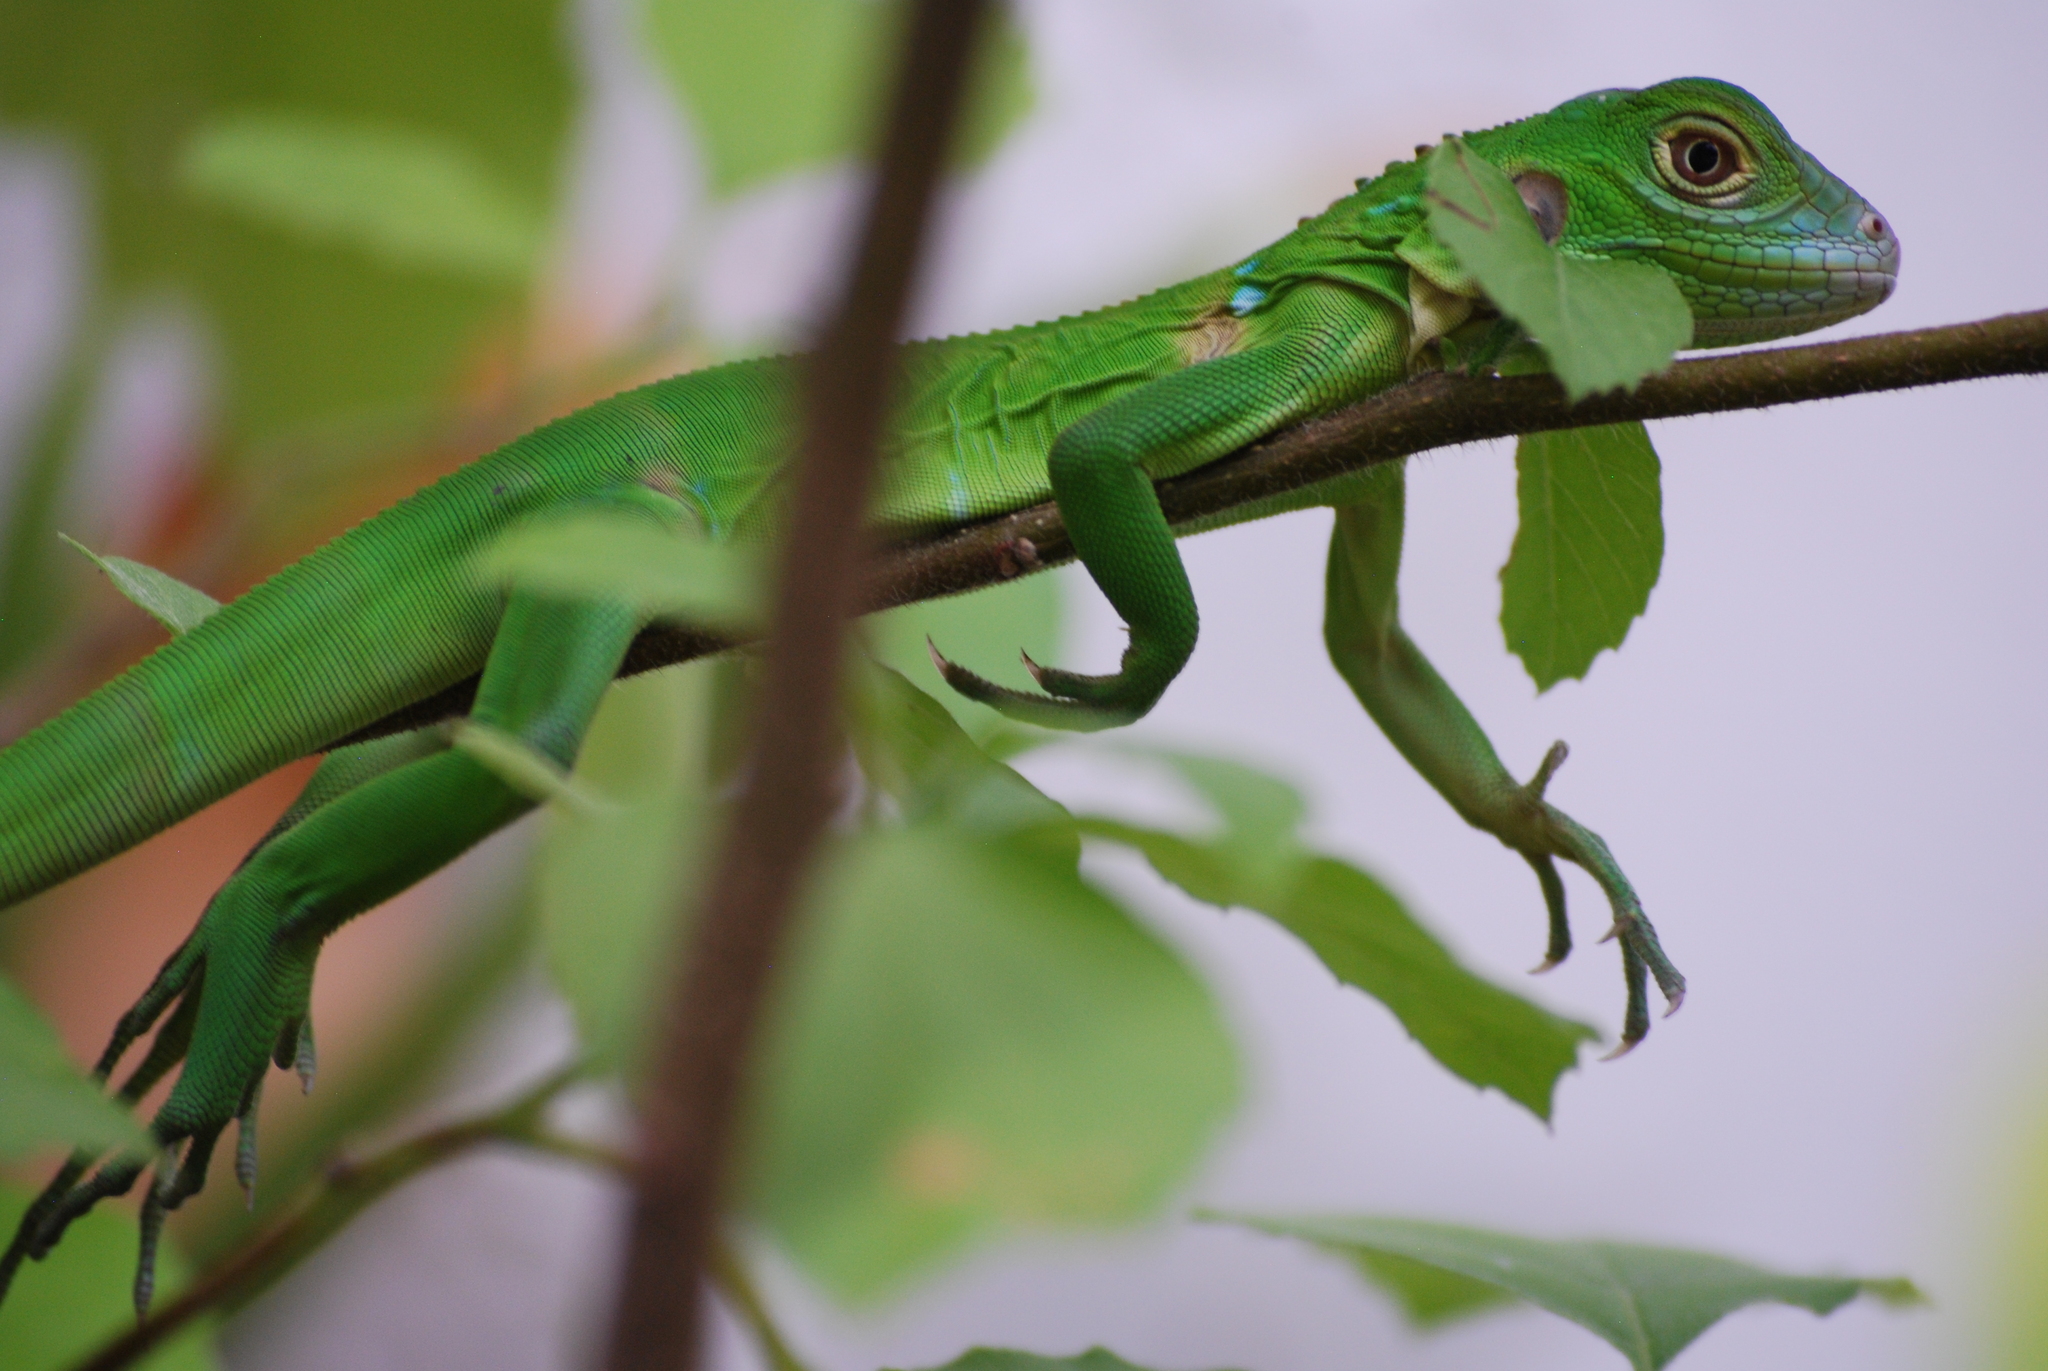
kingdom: Animalia
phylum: Chordata
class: Squamata
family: Iguanidae
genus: Iguana
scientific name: Iguana iguana
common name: Green iguana
